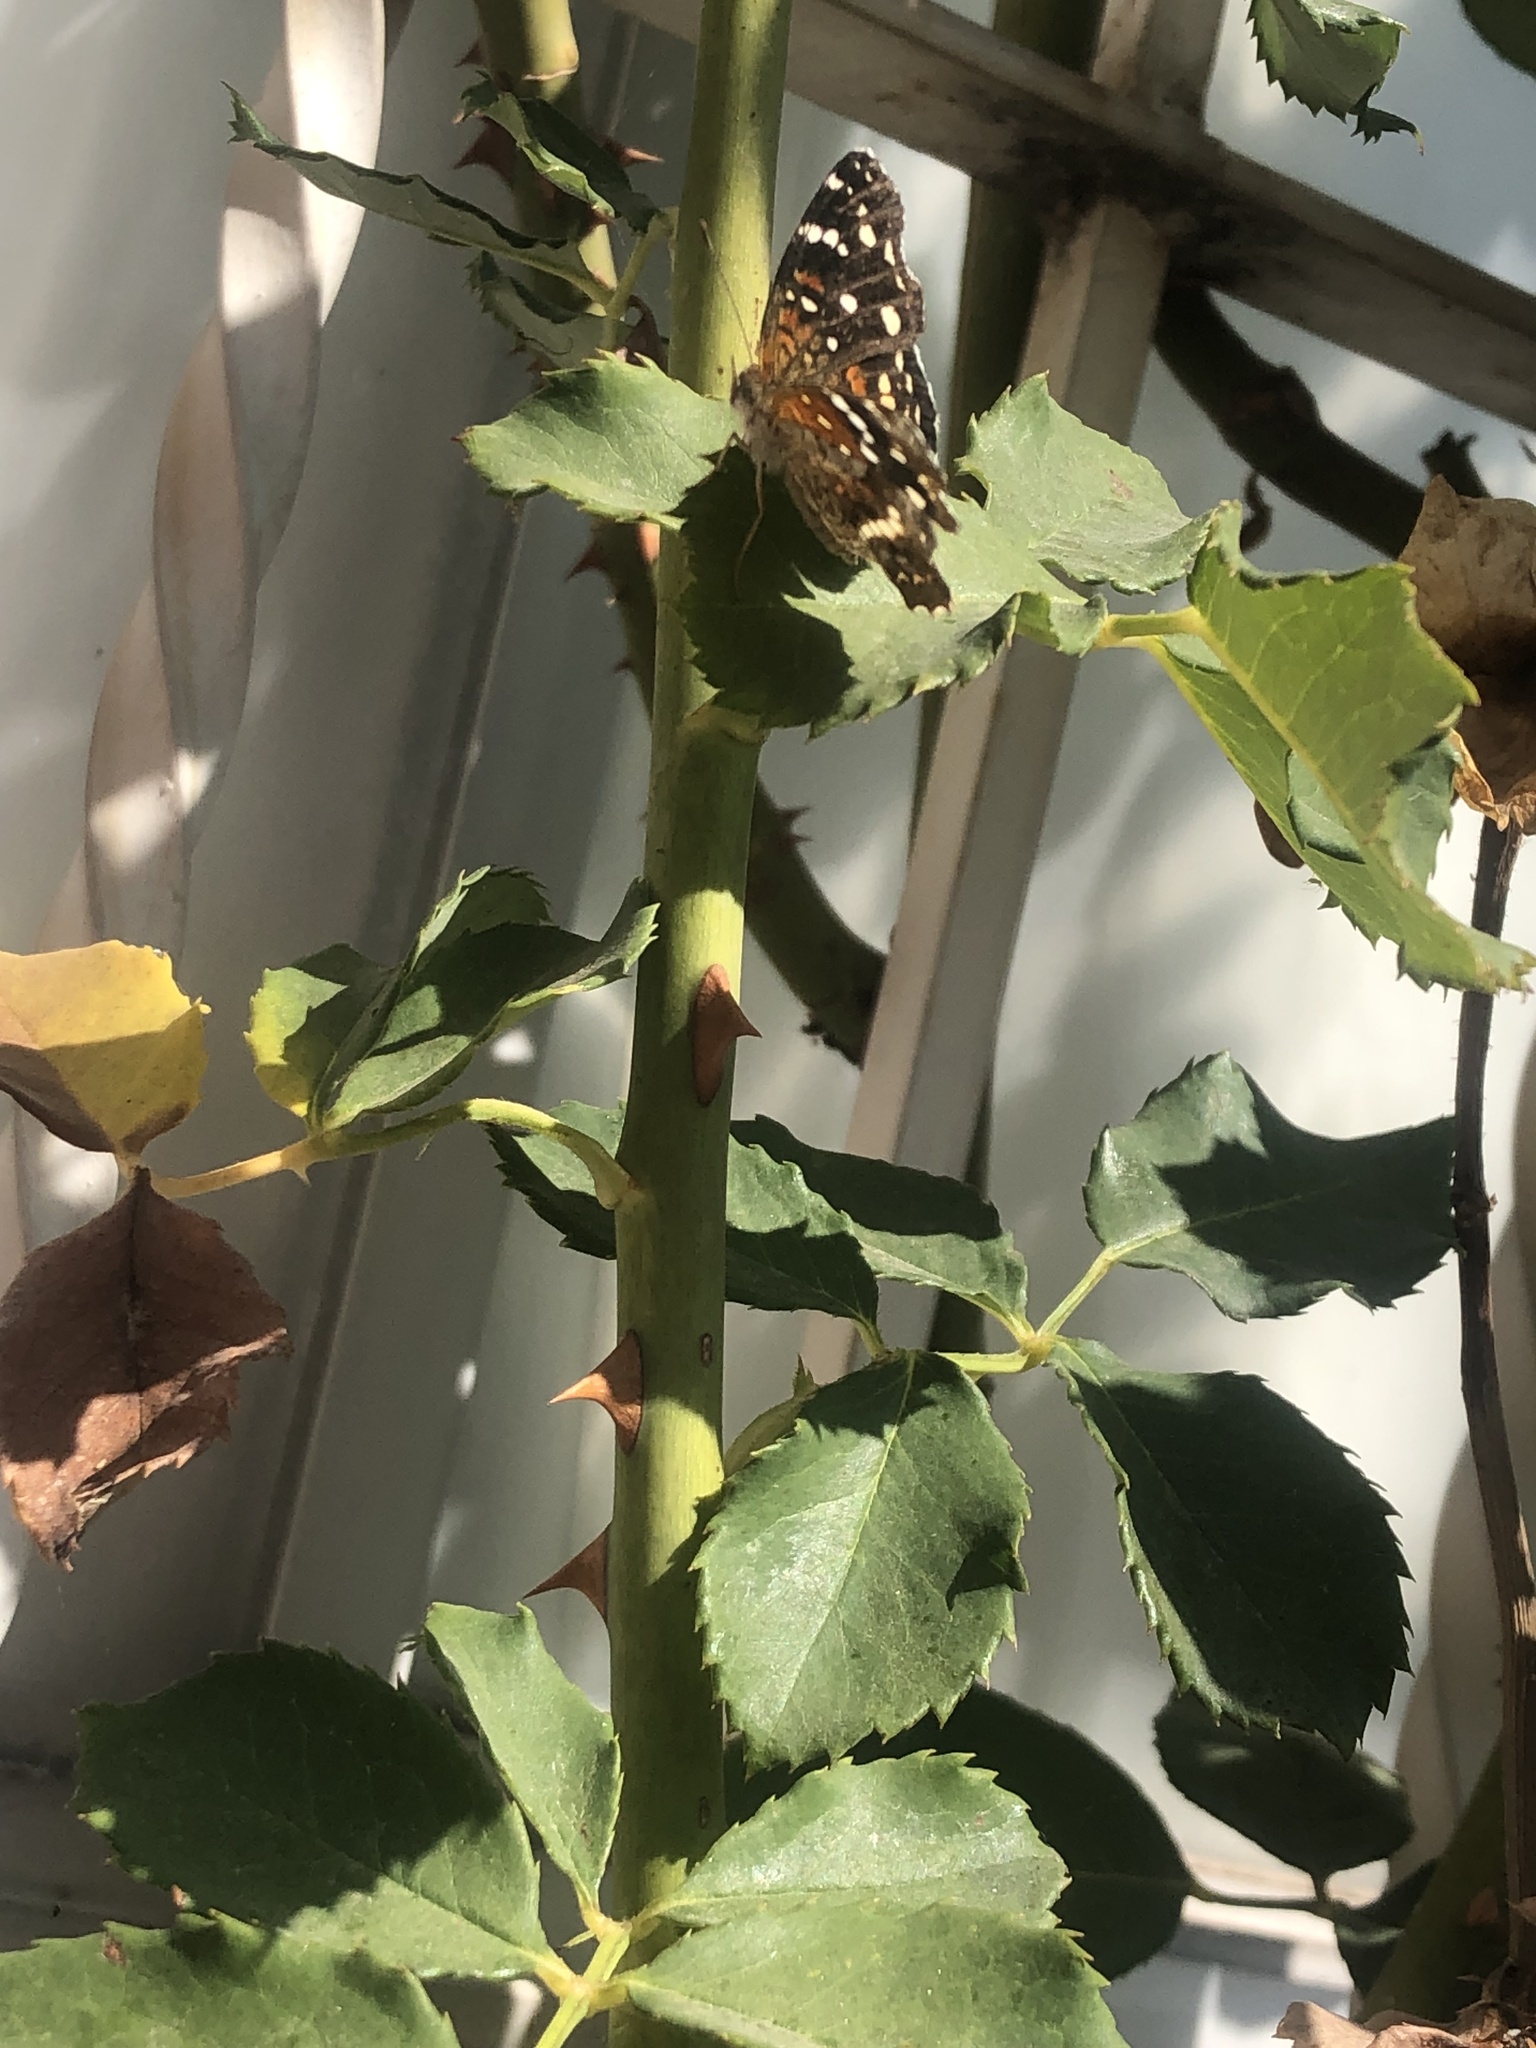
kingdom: Animalia
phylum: Arthropoda
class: Insecta
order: Lepidoptera
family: Nymphalidae
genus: Anthanassa
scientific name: Anthanassa texana
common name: Texan crescent
